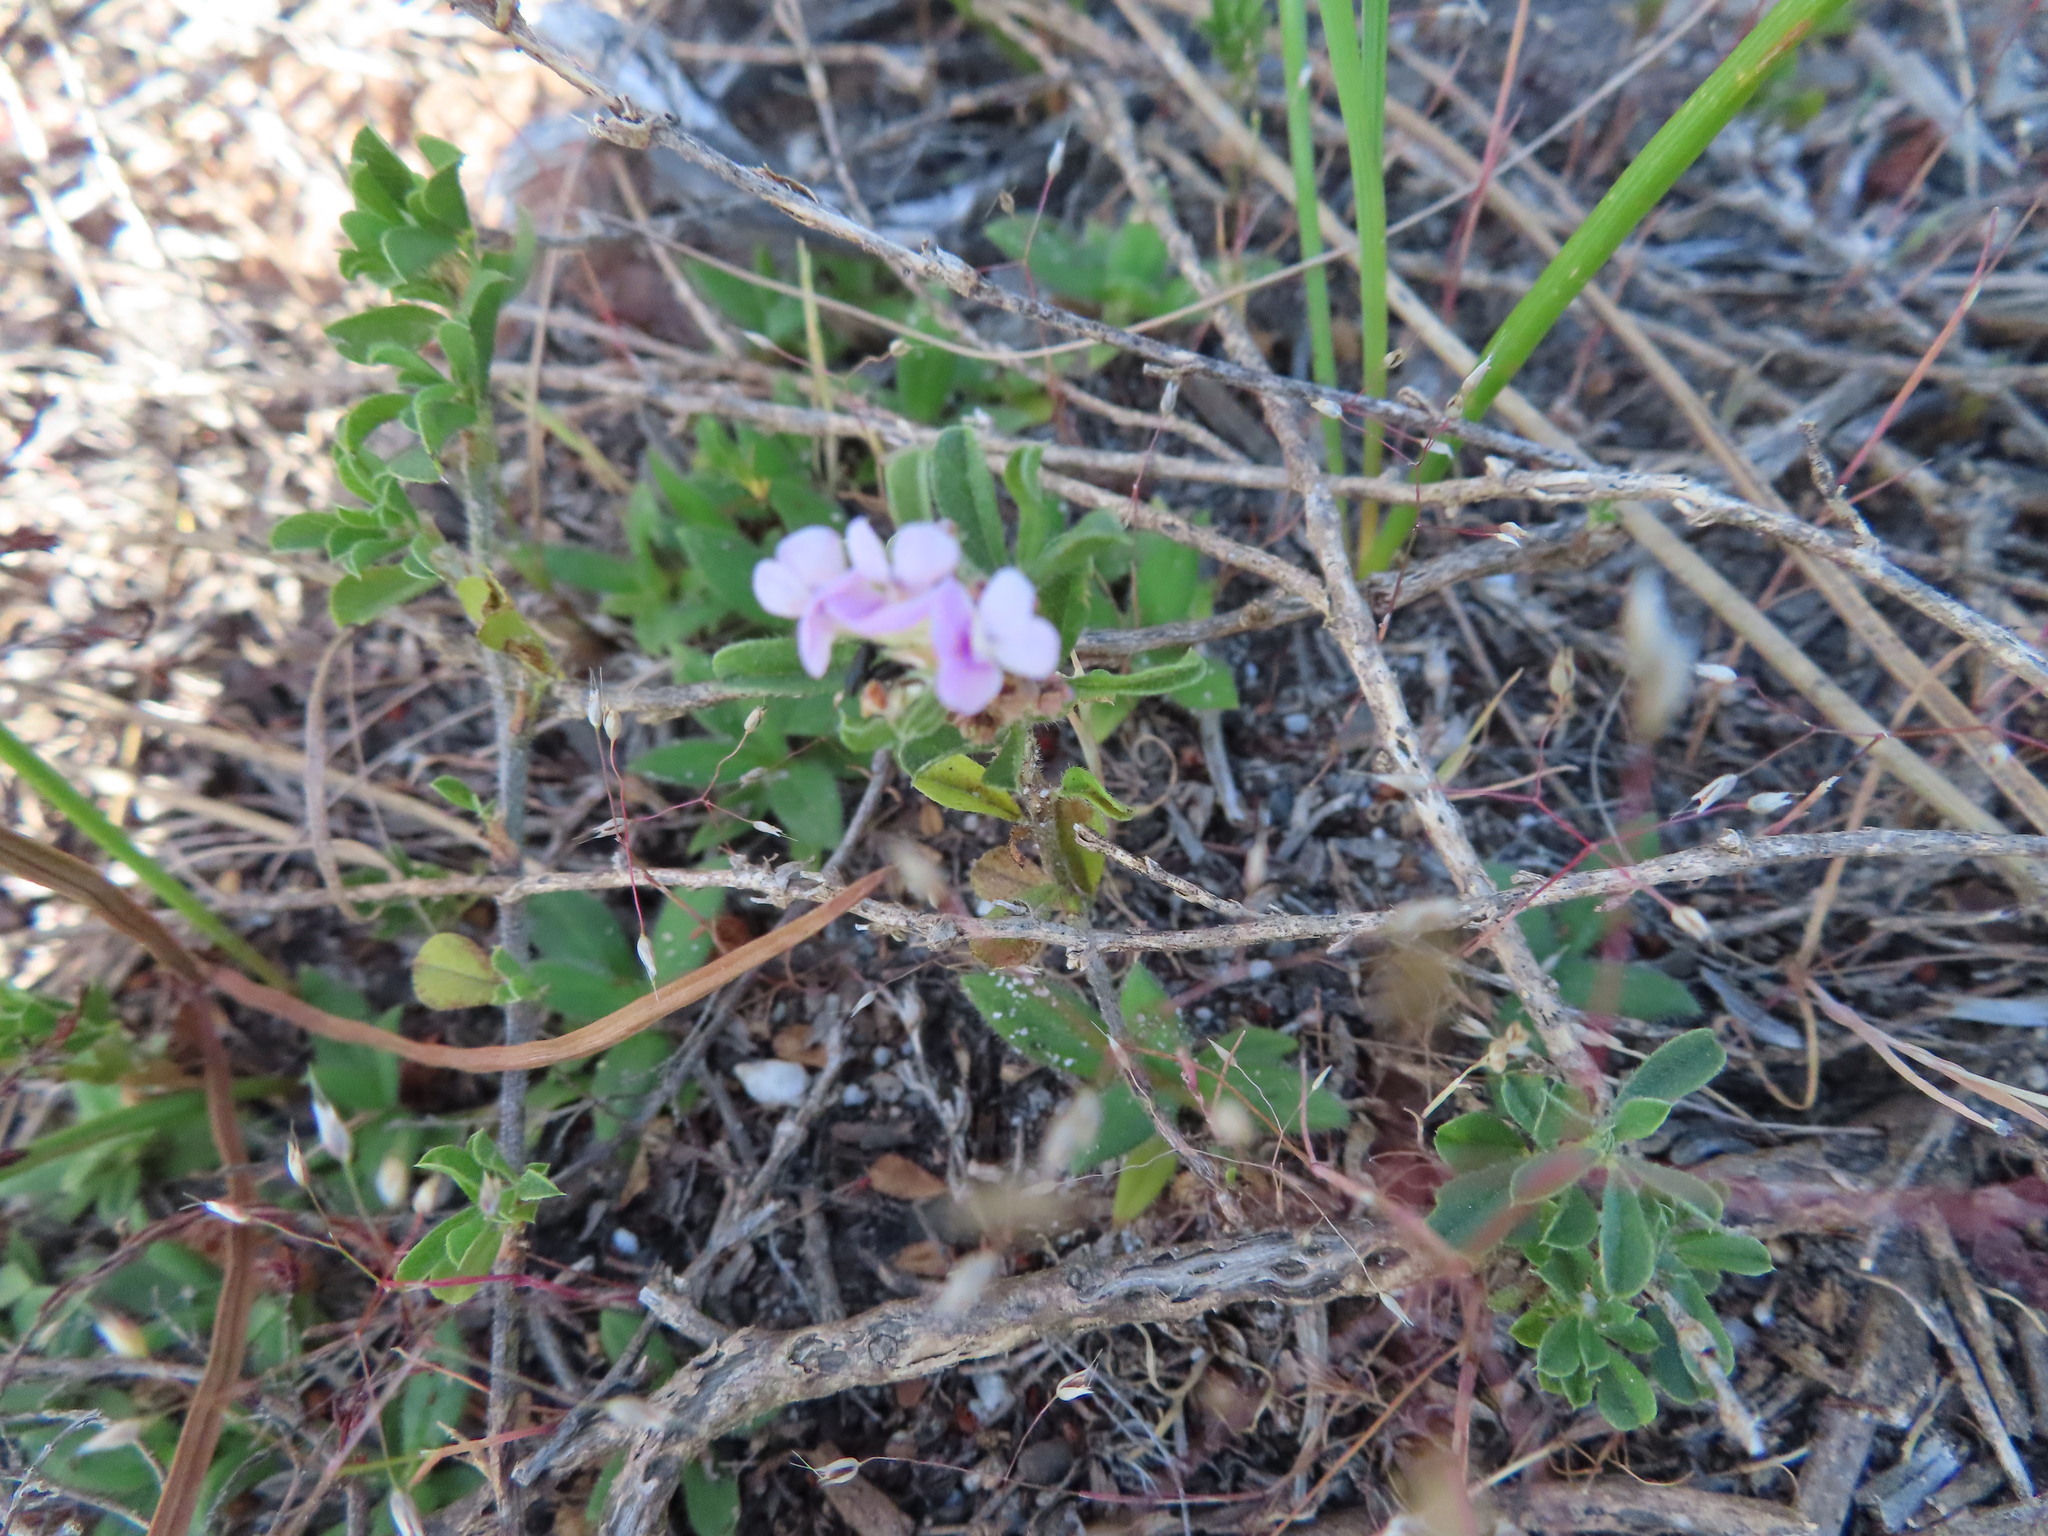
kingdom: Plantae
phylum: Tracheophyta
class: Magnoliopsida
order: Fabales
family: Fabaceae
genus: Psoralea
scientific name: Psoralea
